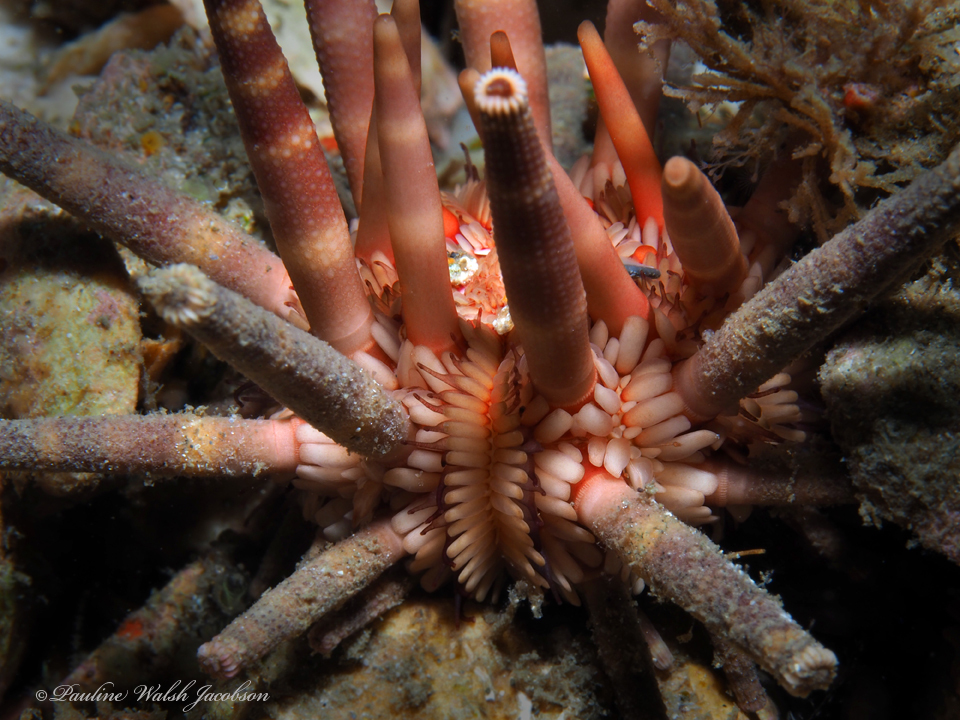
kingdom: Animalia
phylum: Echinodermata
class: Echinoidea
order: Cidaroida
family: Cidaridae
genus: Eucidaris
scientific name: Eucidaris tribuloides
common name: Slate pencil urchin
